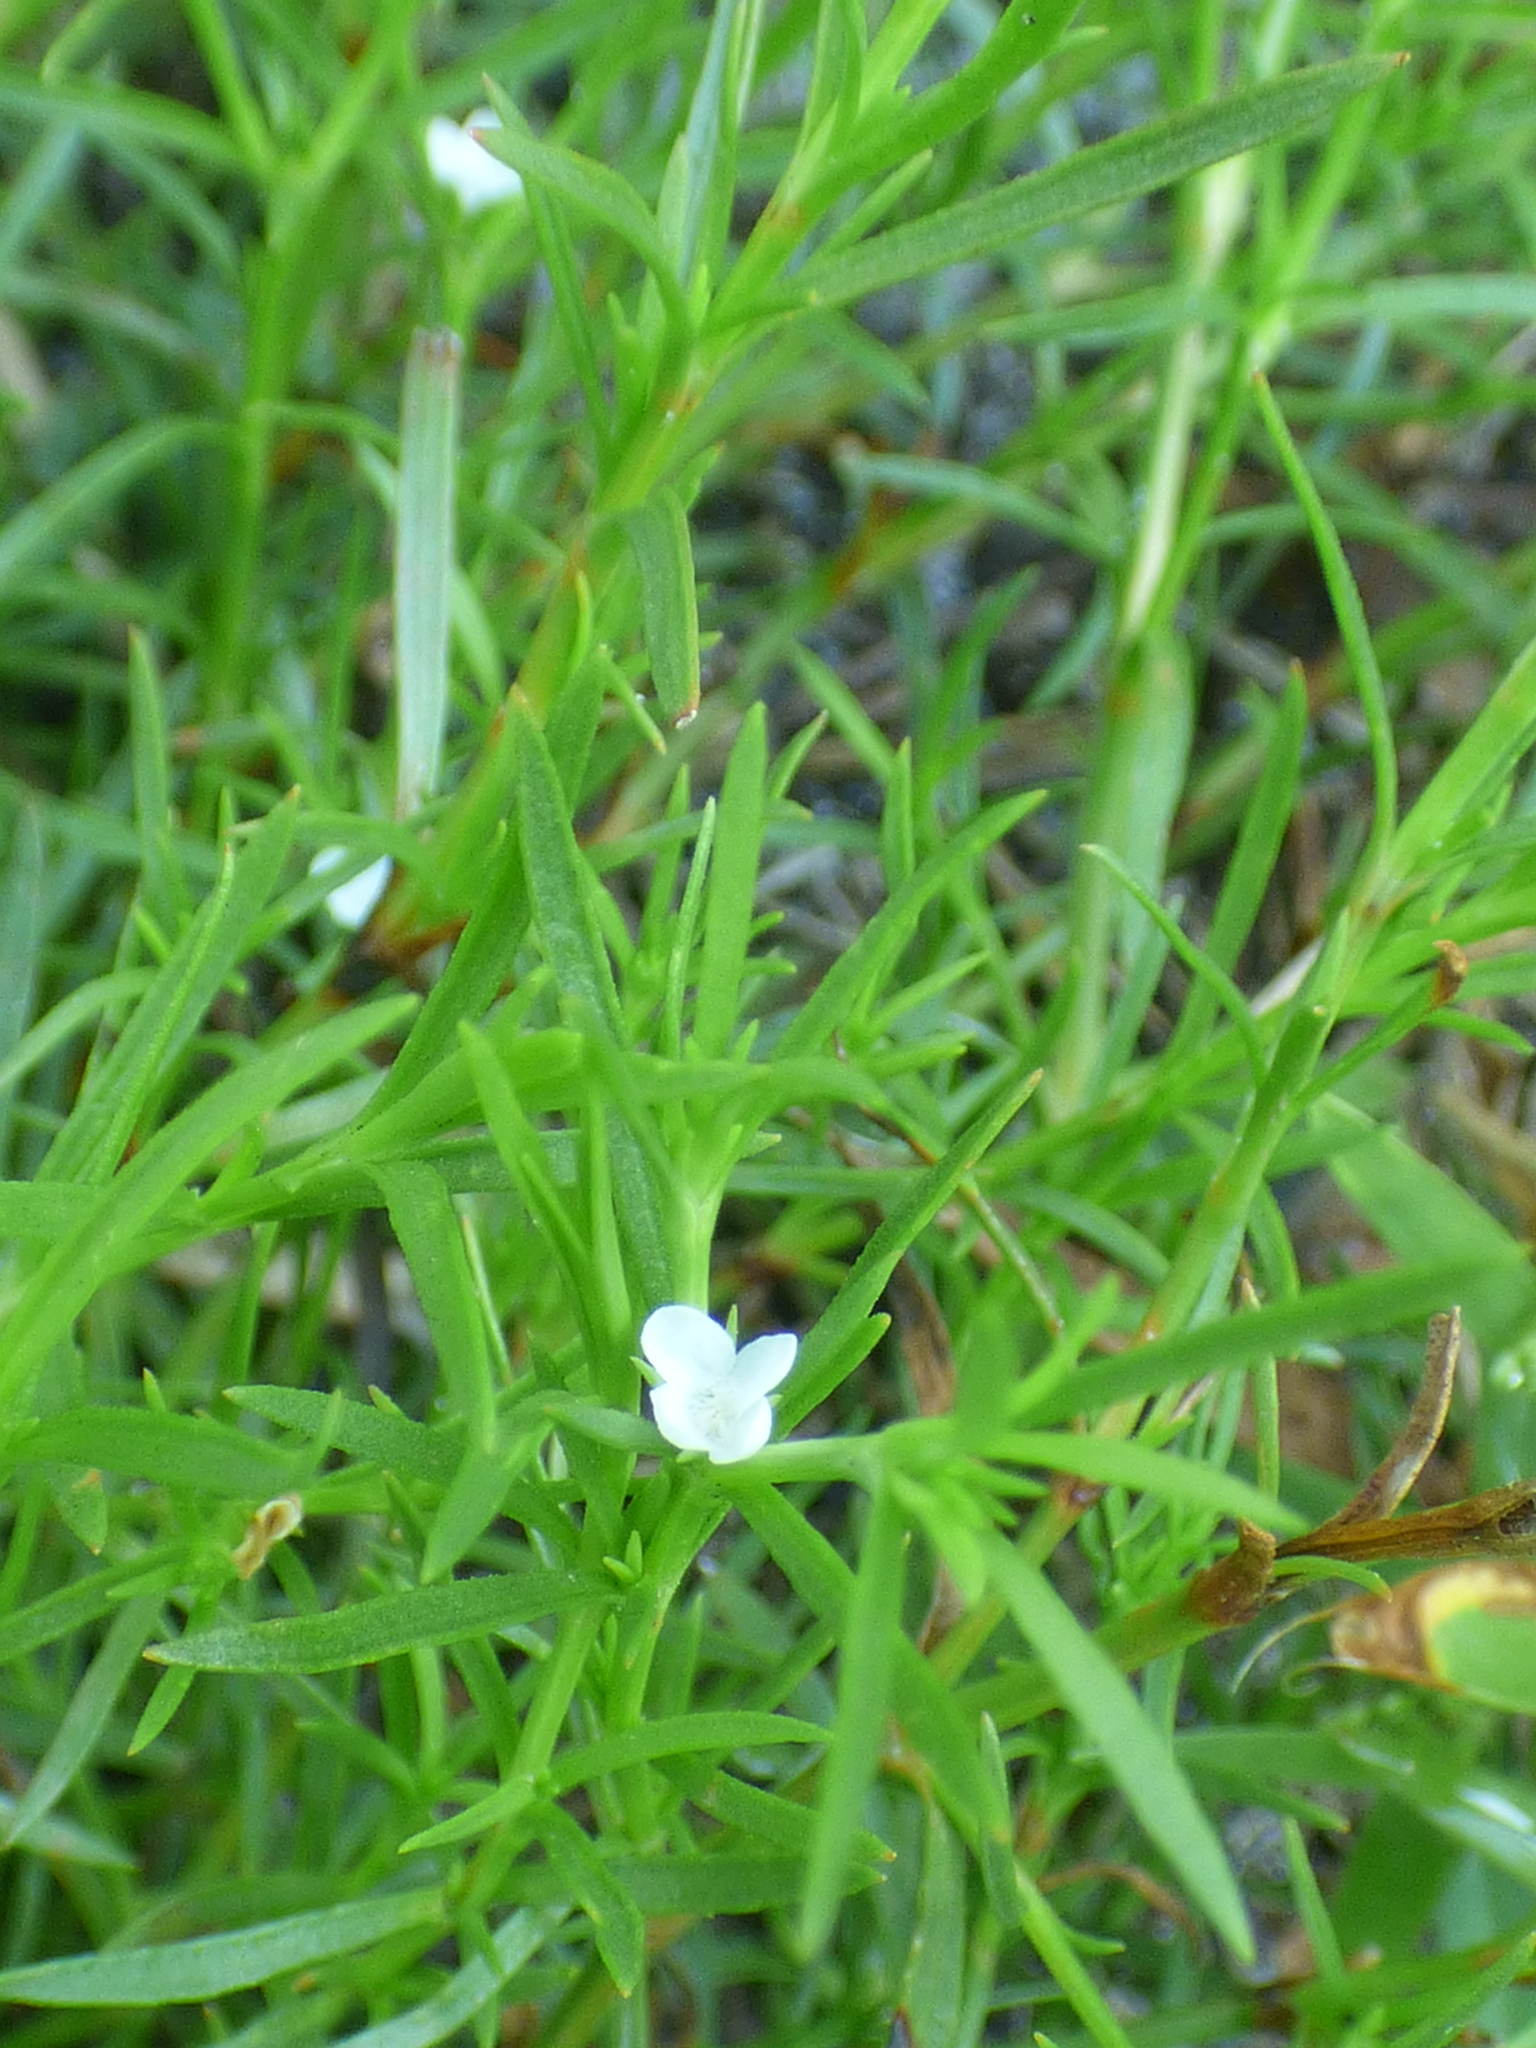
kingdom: Plantae
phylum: Tracheophyta
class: Magnoliopsida
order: Lamiales
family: Tetrachondraceae
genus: Polypremum
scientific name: Polypremum procumbens
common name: Juniper-leaf
